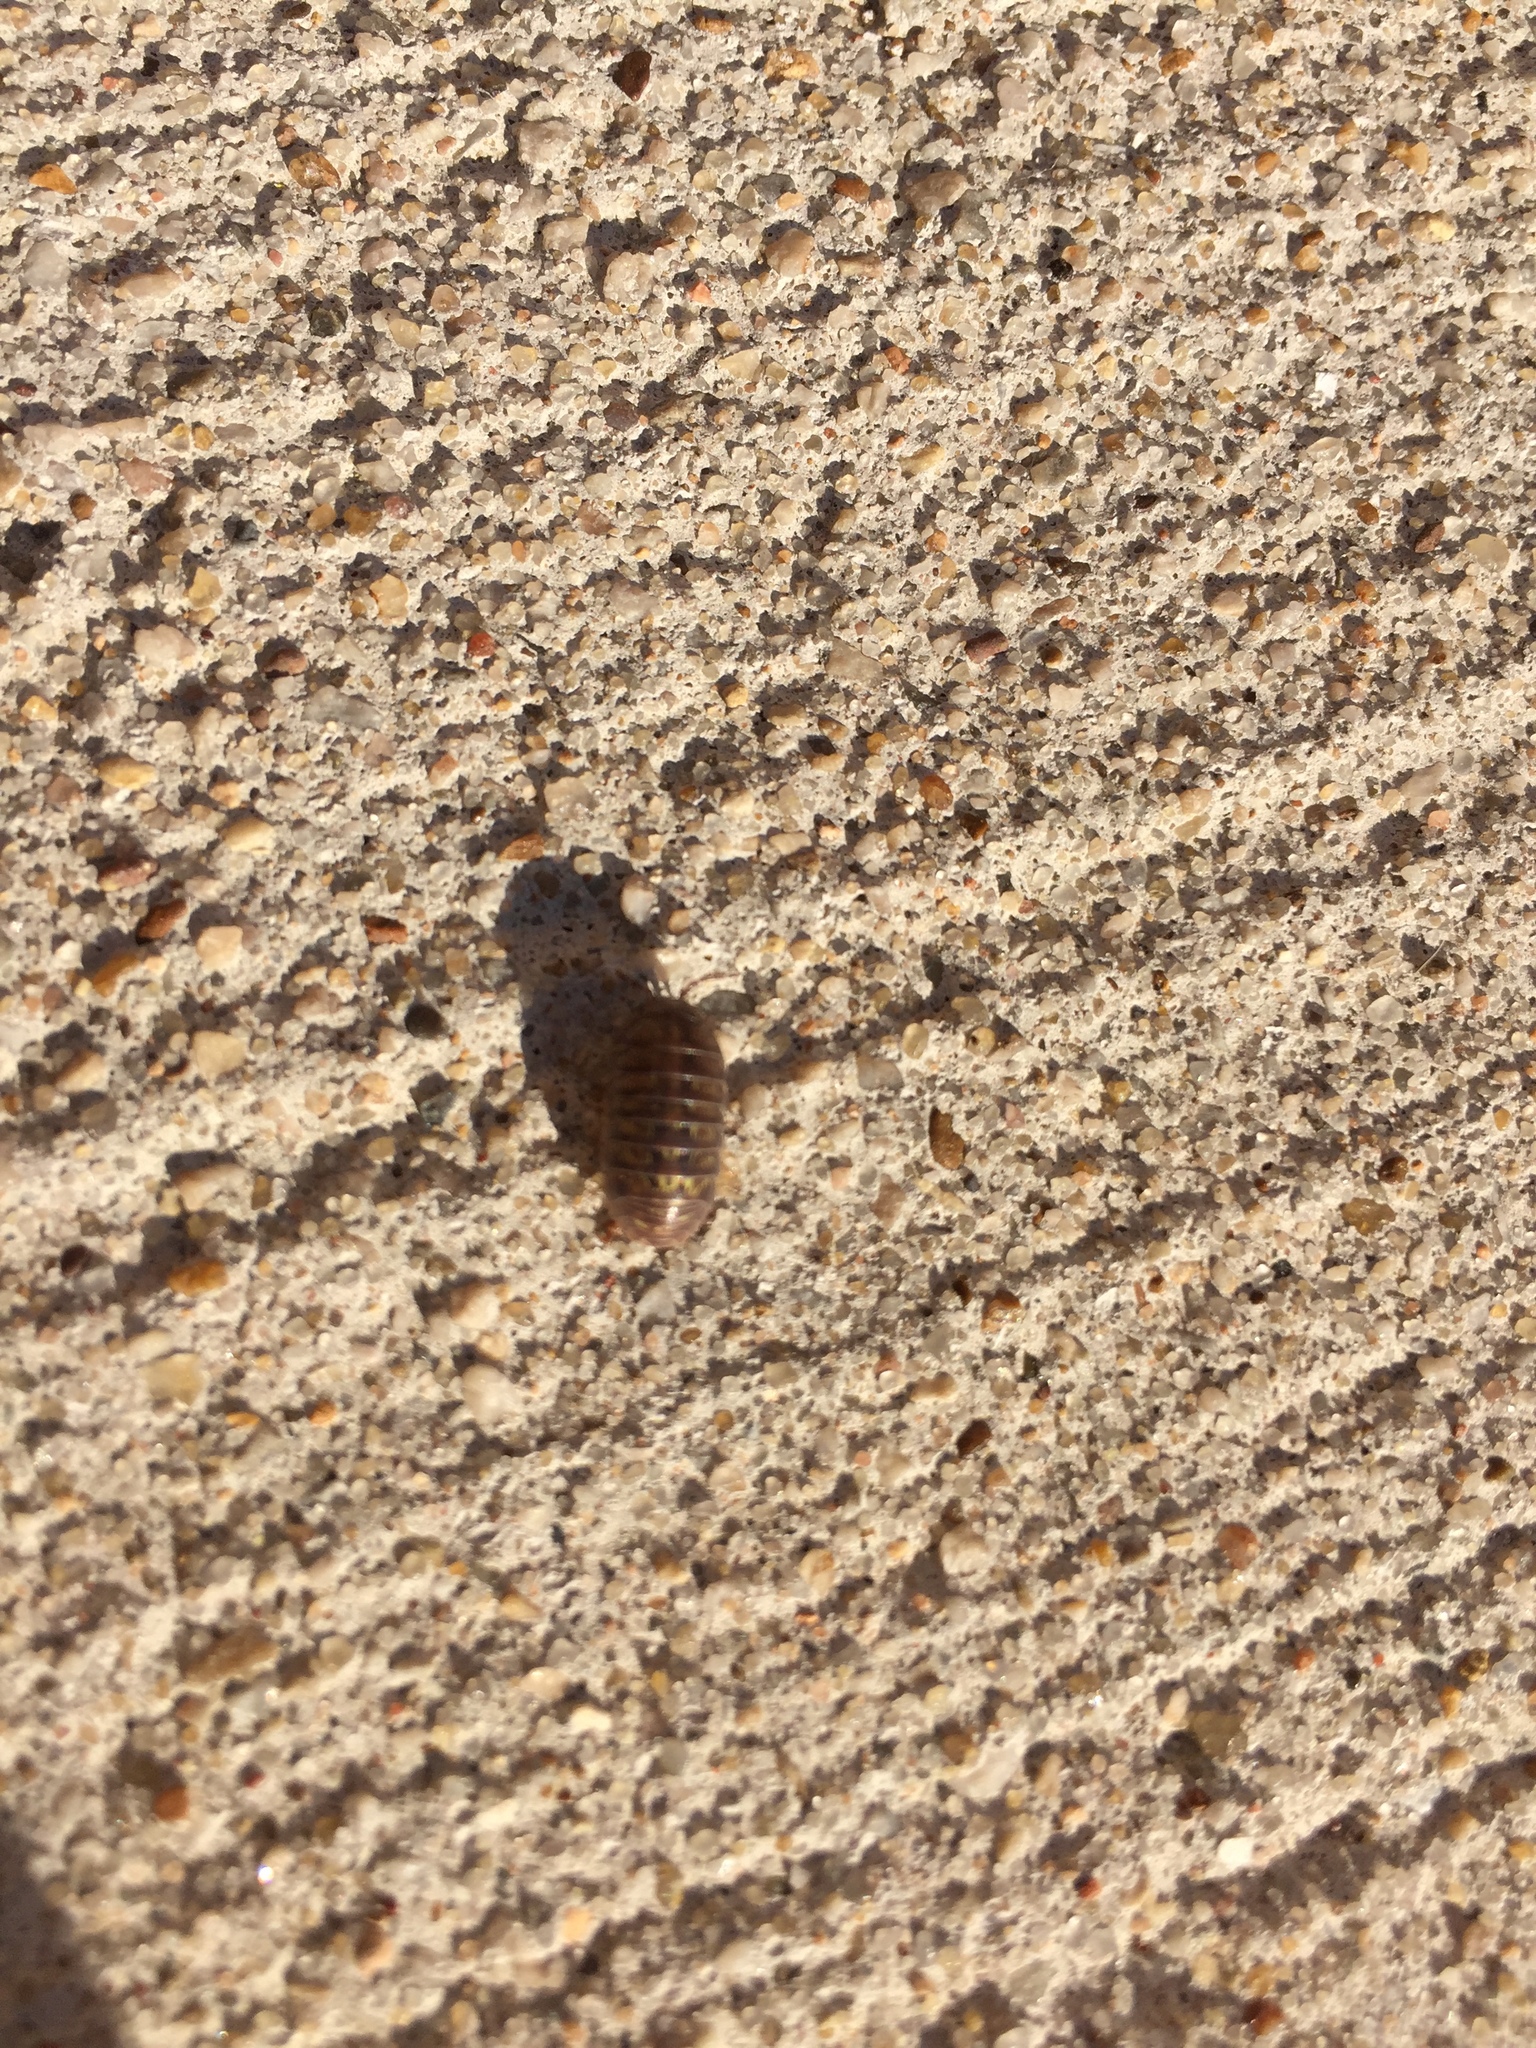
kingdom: Animalia
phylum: Arthropoda
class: Malacostraca
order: Isopoda
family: Armadillidiidae
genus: Armadillidium
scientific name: Armadillidium vulgare
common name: Common pill woodlouse
